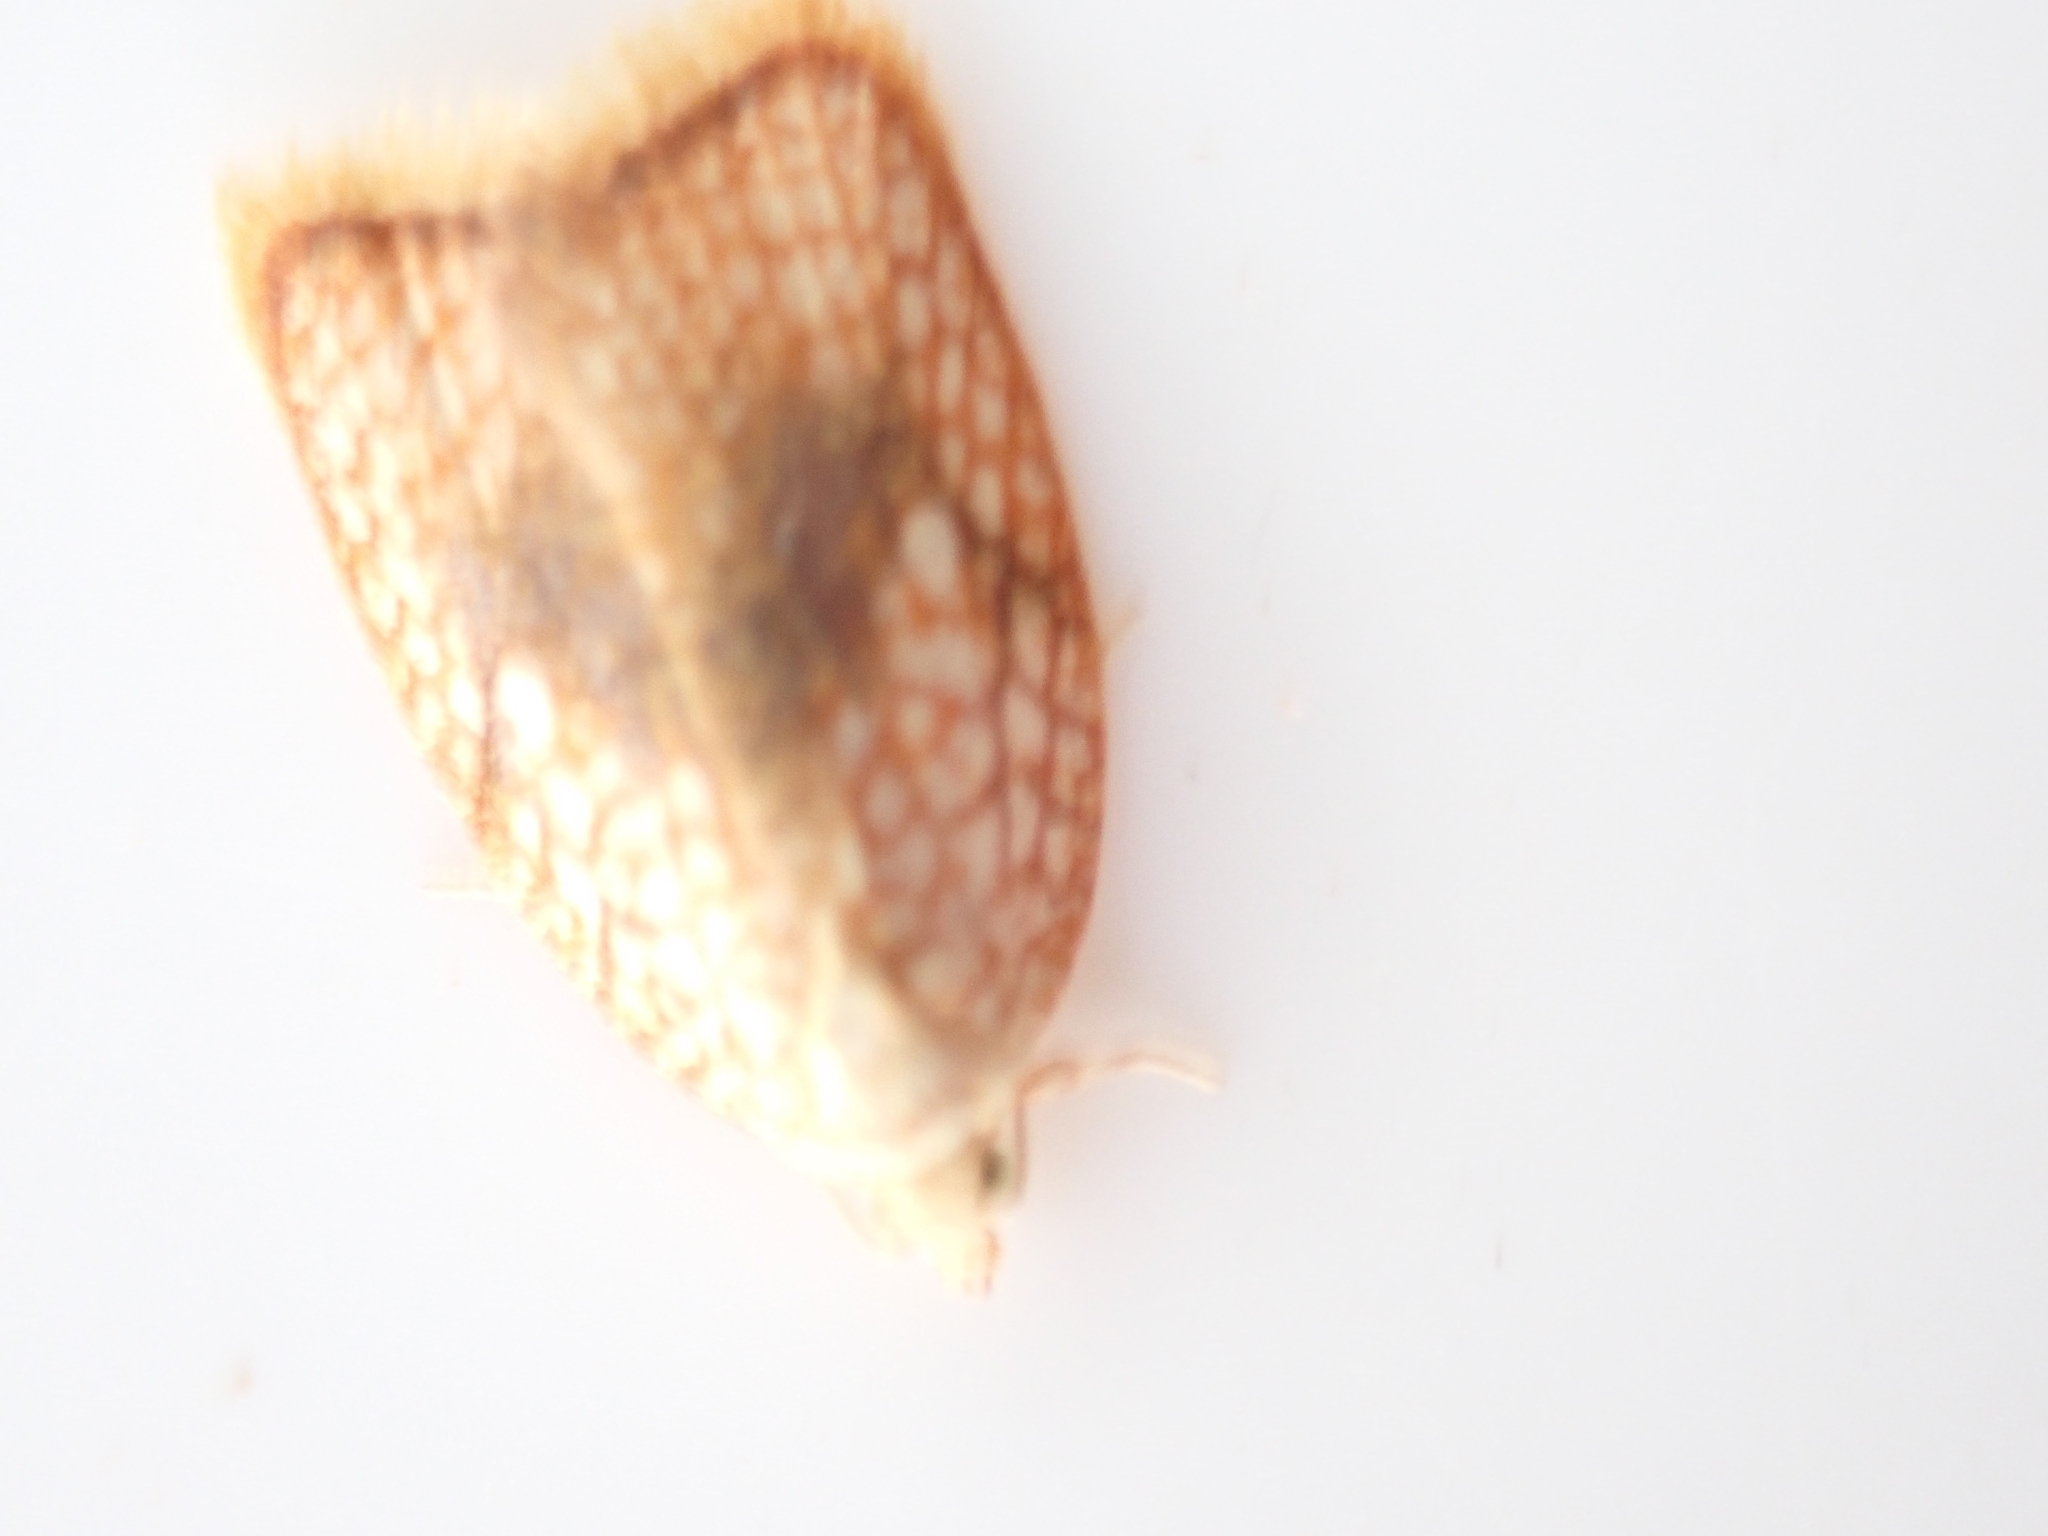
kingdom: Animalia
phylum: Arthropoda
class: Insecta
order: Lepidoptera
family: Tortricidae
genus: Acleris
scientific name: Acleris forsskaleana
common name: Maple button
